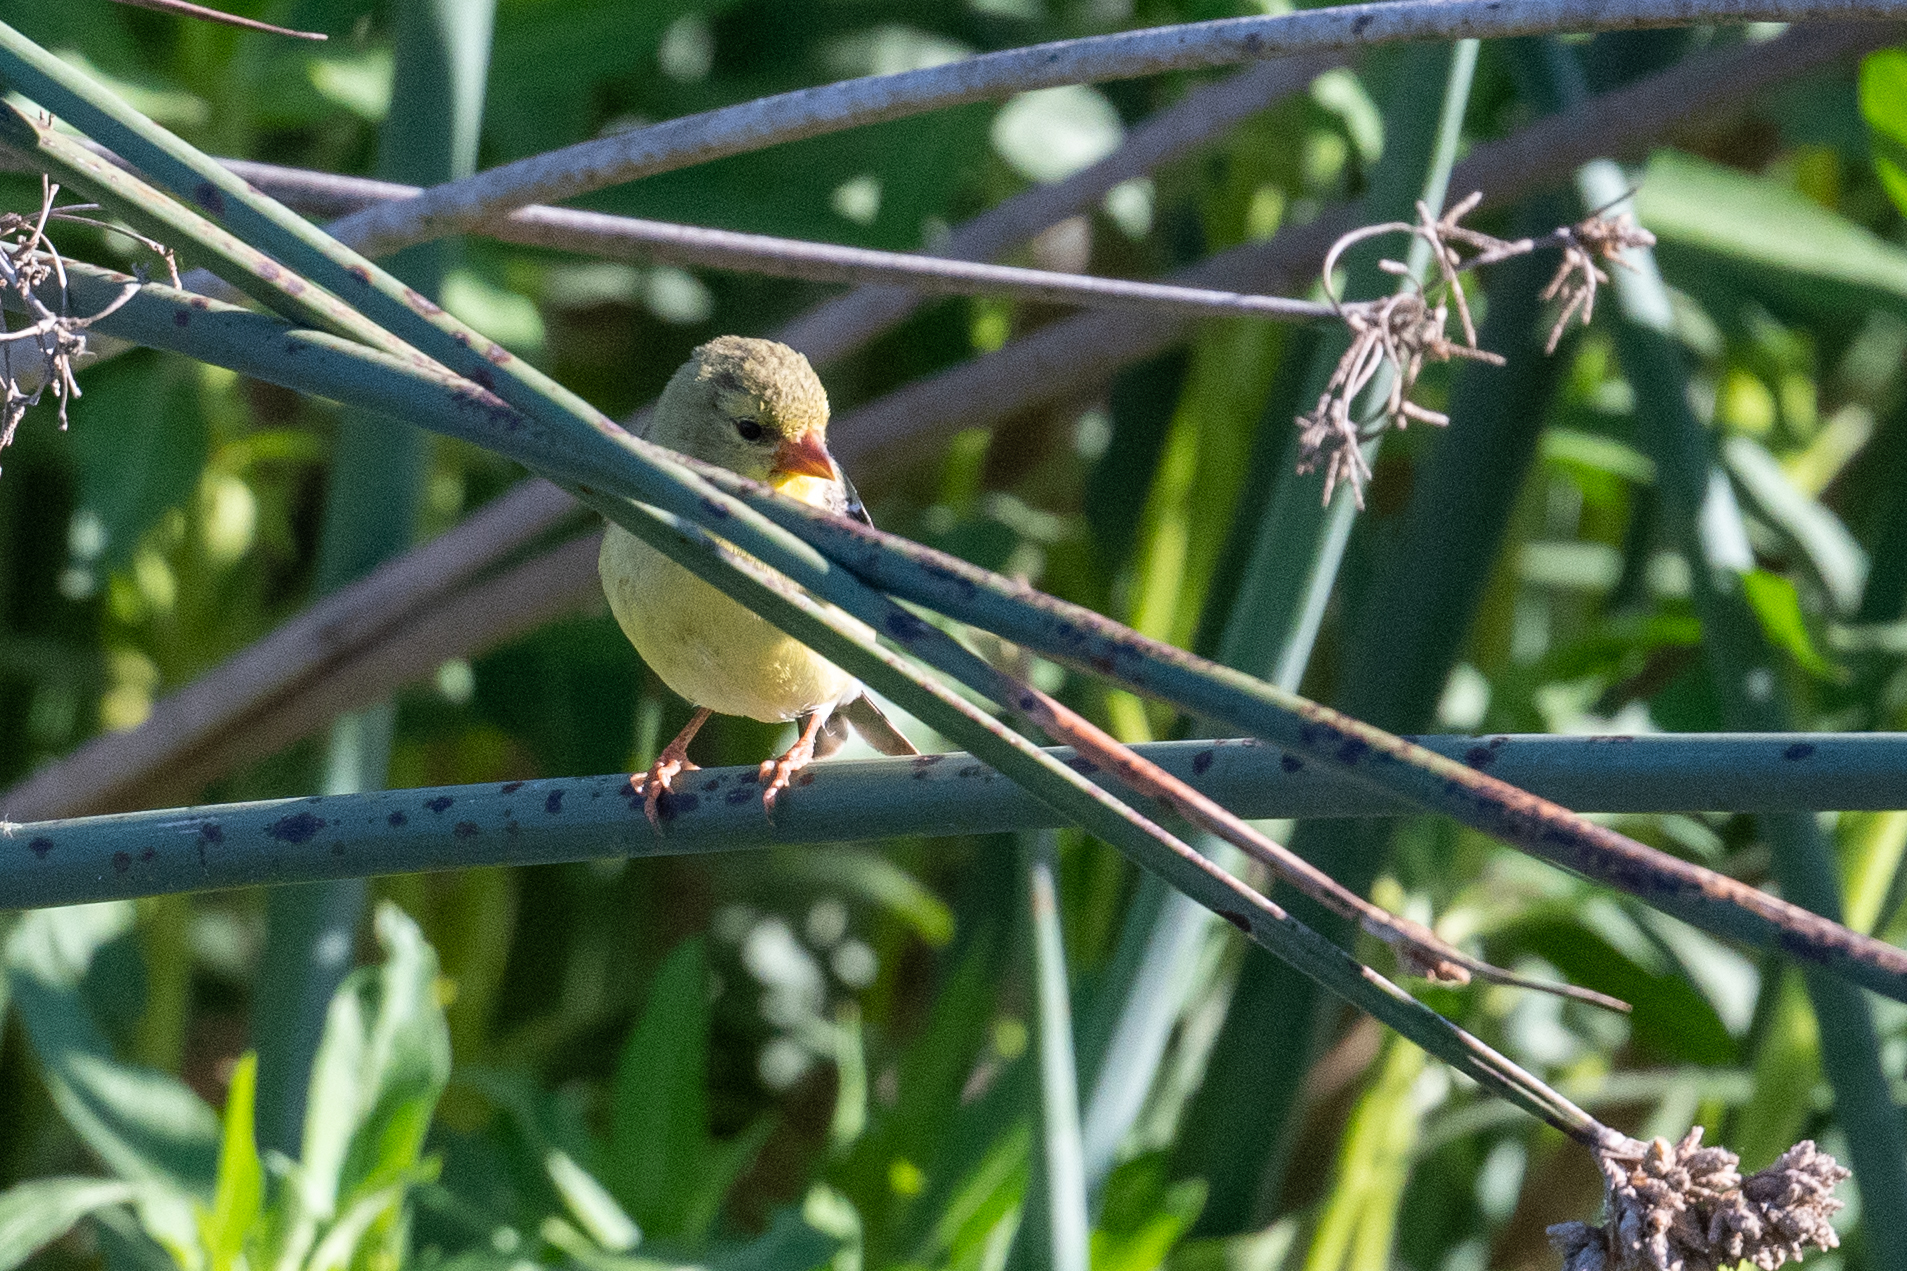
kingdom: Animalia
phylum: Chordata
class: Aves
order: Passeriformes
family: Fringillidae
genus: Spinus
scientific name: Spinus tristis
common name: American goldfinch
